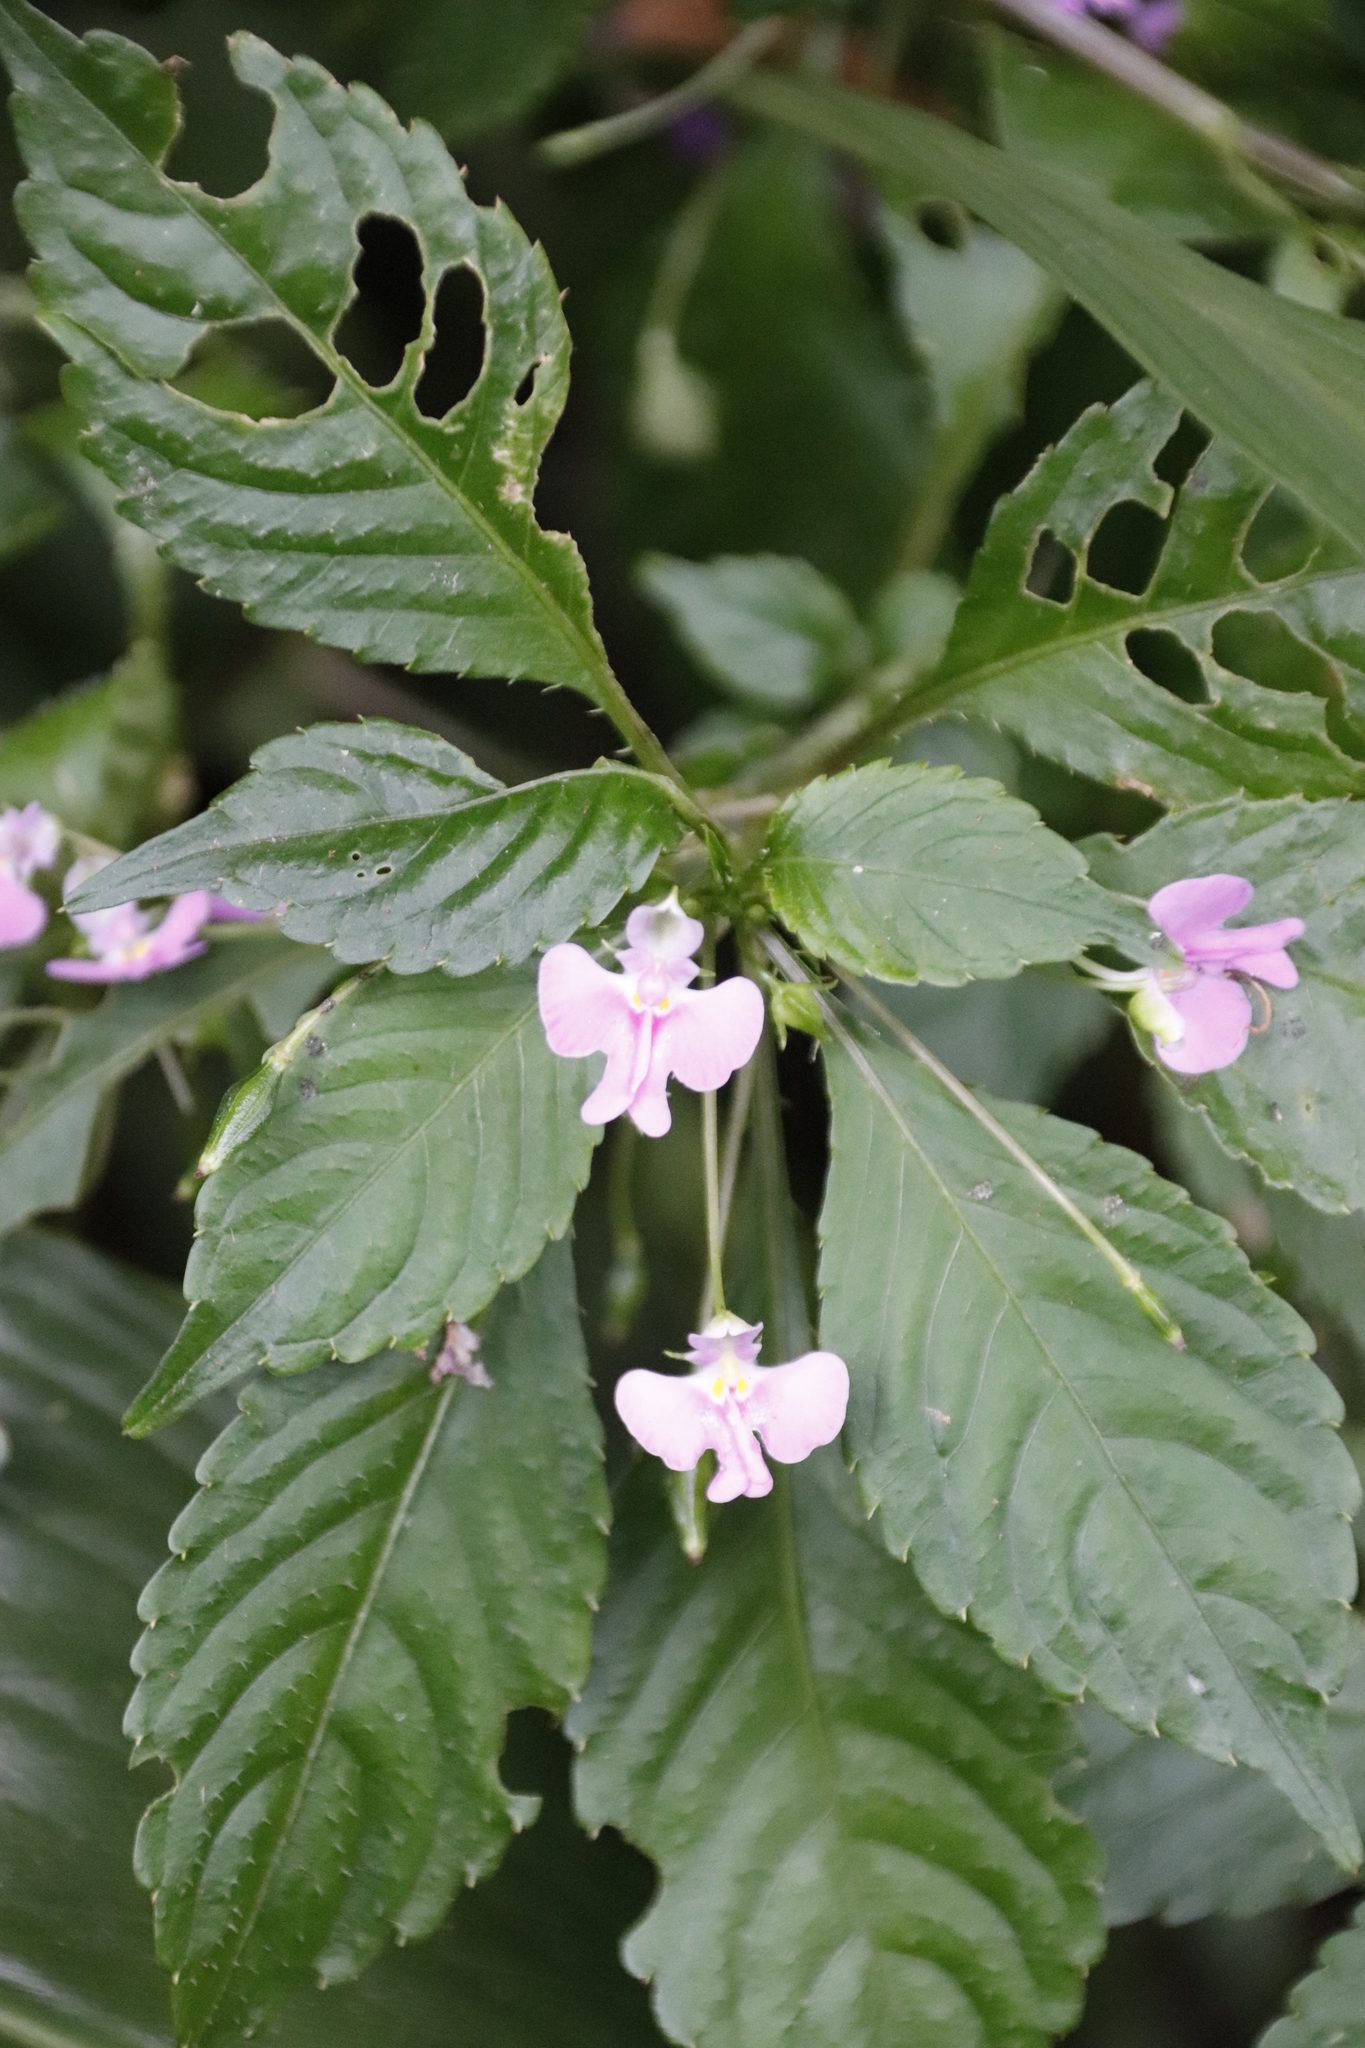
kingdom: Plantae
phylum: Tracheophyta
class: Magnoliopsida
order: Ericales
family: Balsaminaceae
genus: Impatiens
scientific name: Impatiens hochstetteri
